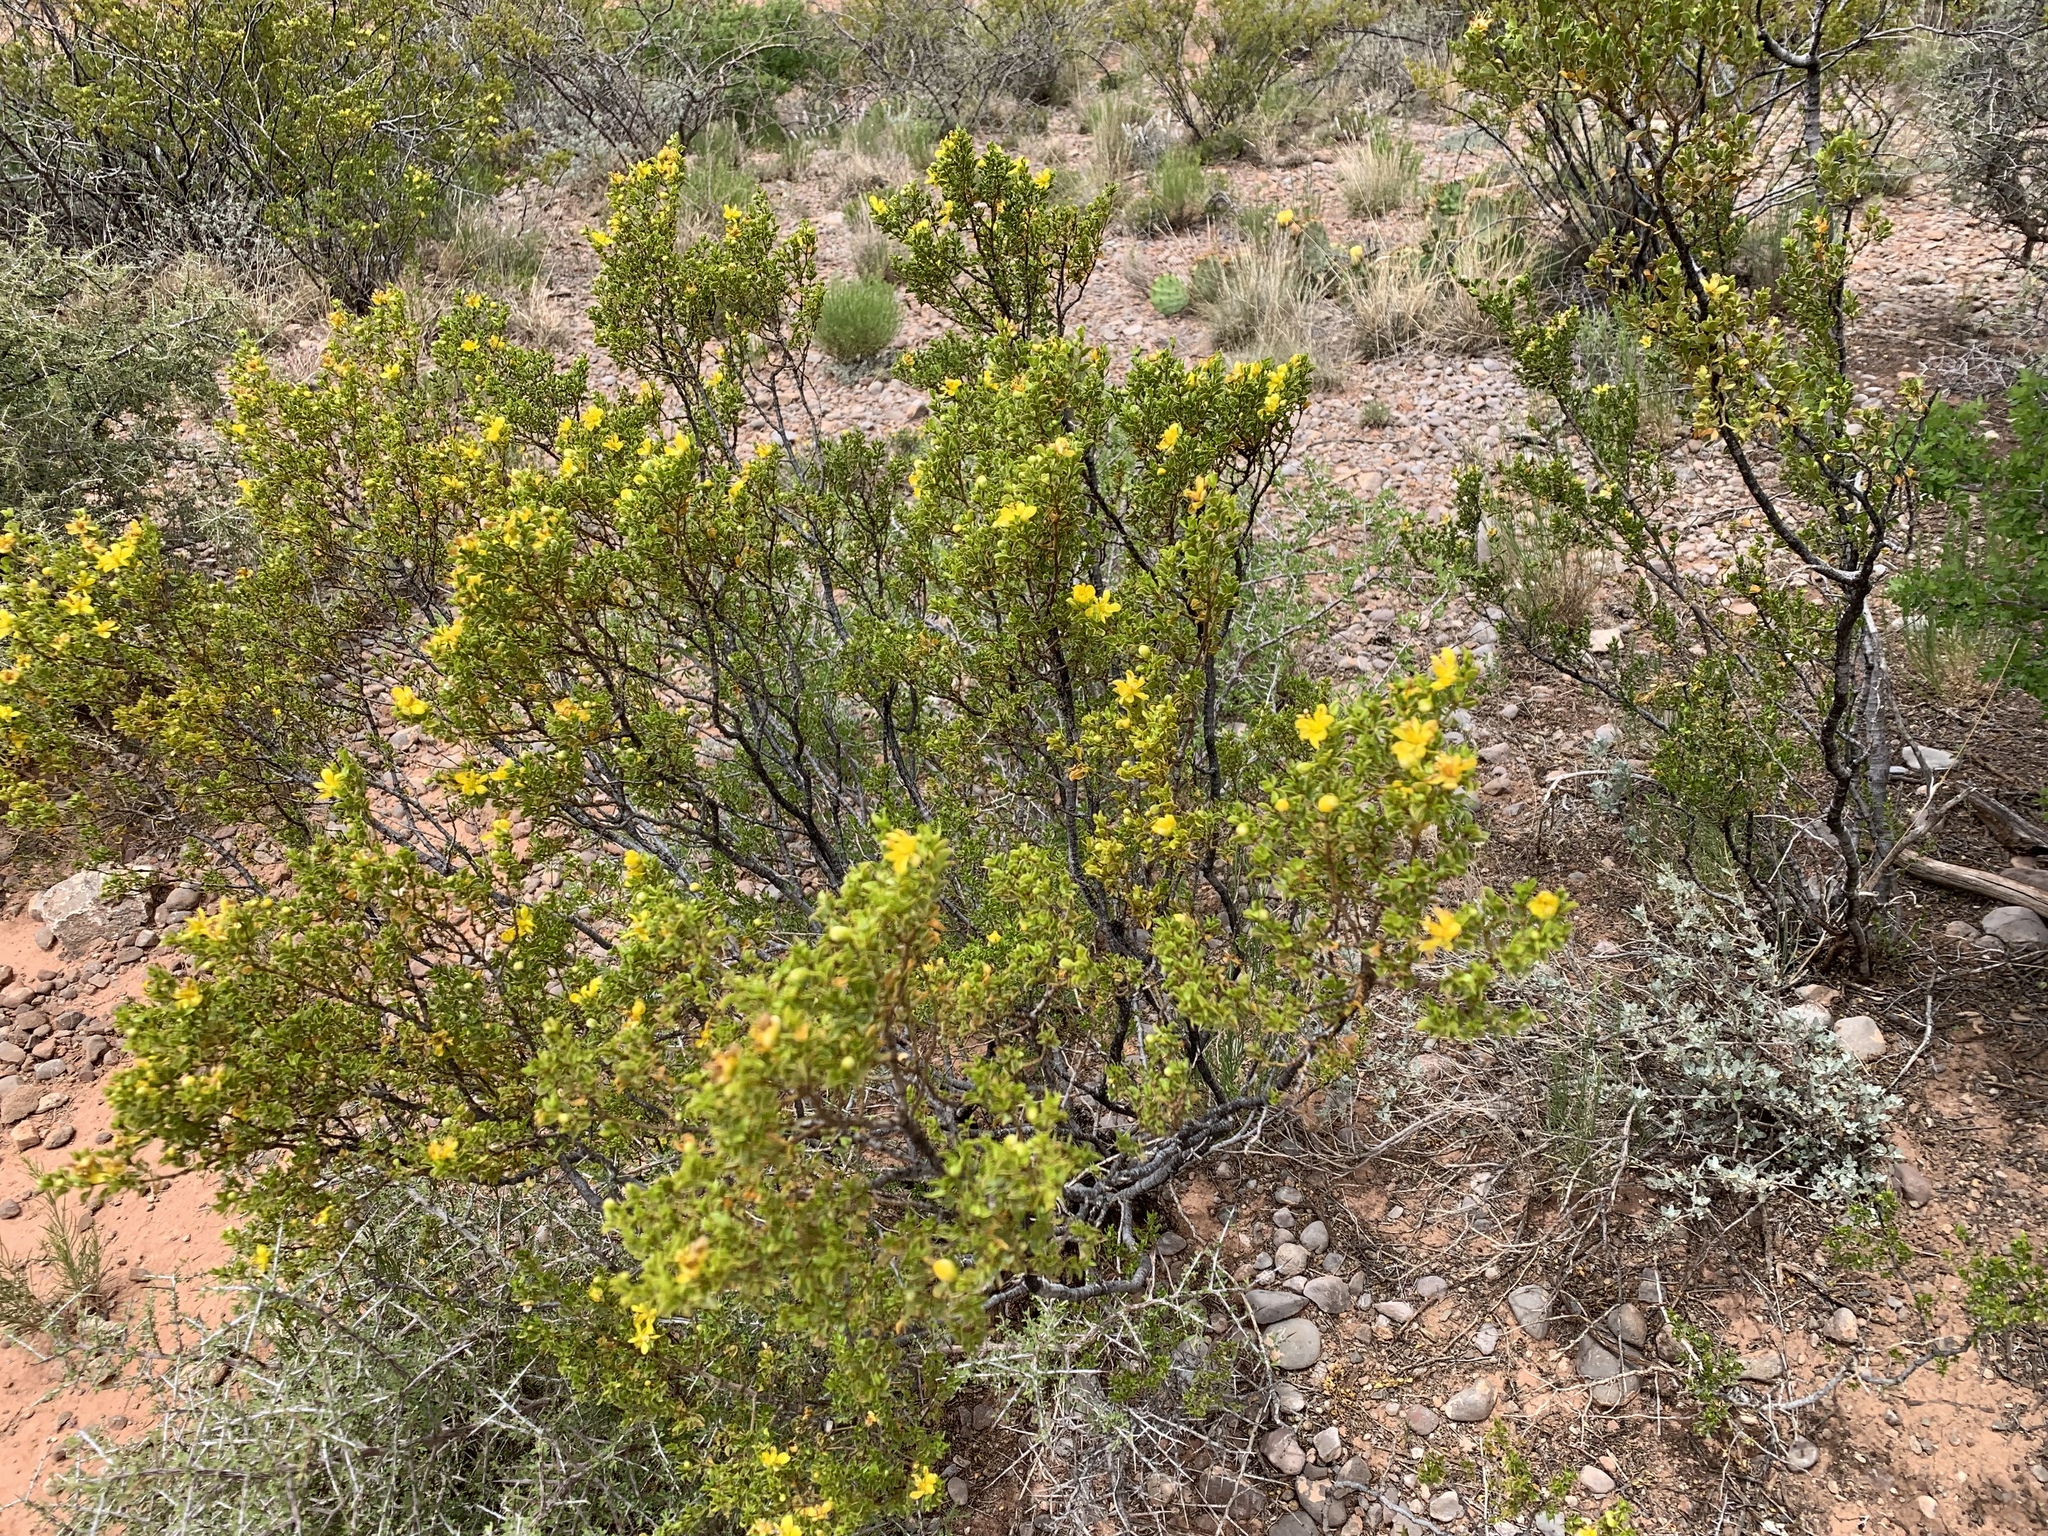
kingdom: Plantae
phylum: Tracheophyta
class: Magnoliopsida
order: Zygophyllales
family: Zygophyllaceae
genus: Larrea
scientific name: Larrea tridentata
